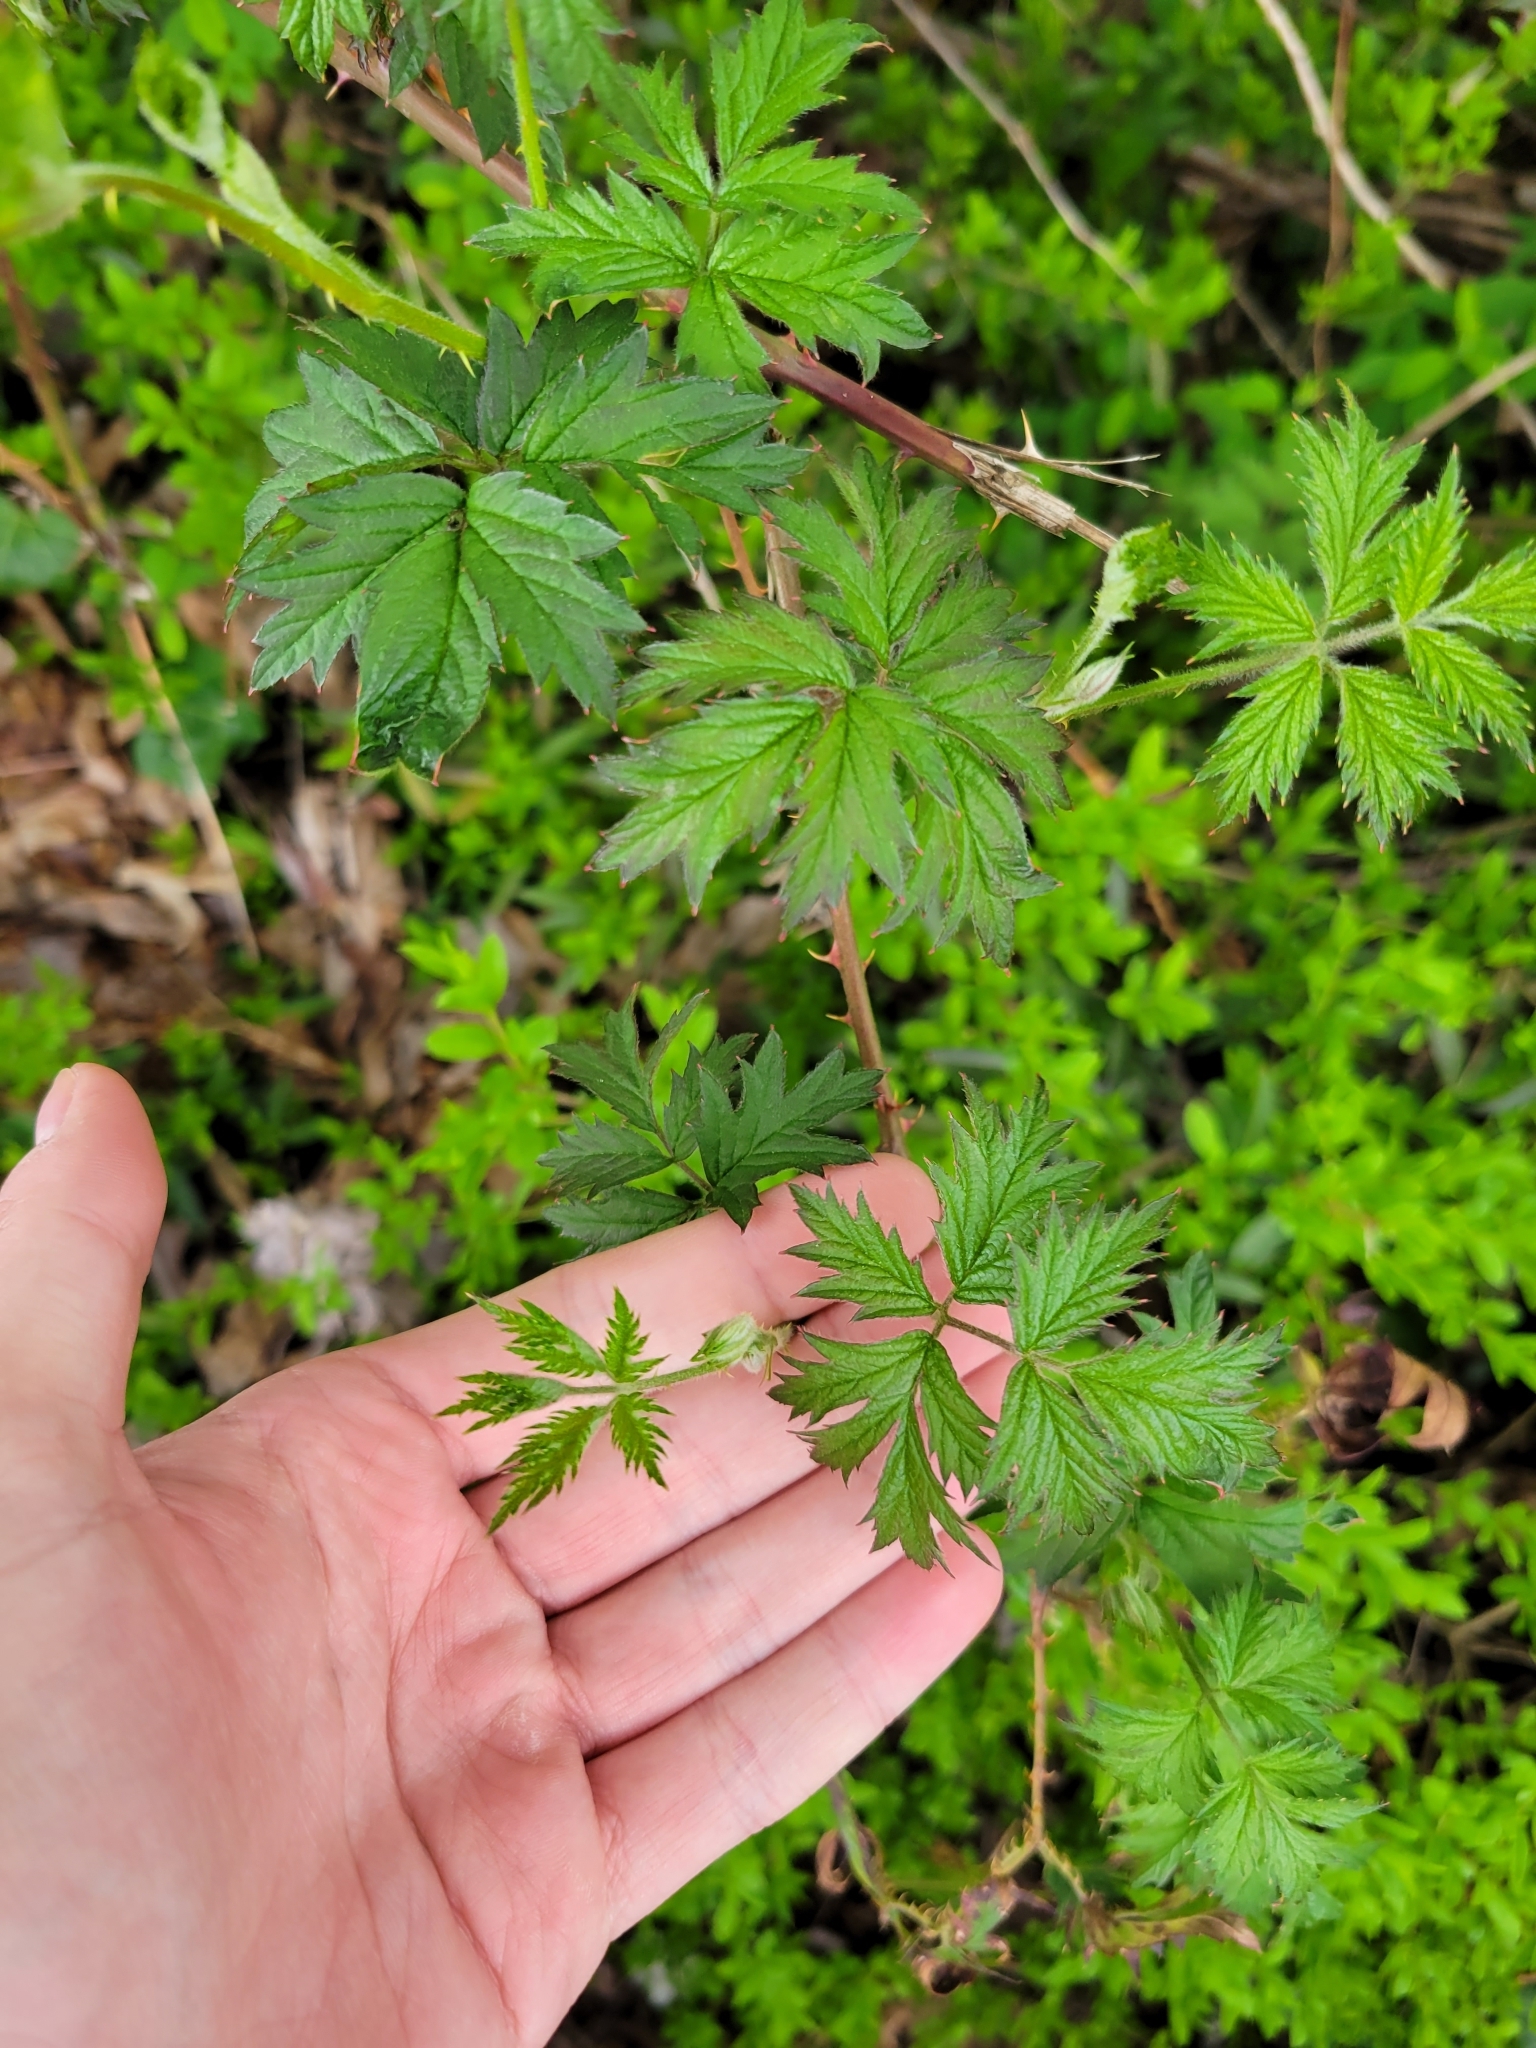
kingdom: Plantae
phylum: Tracheophyta
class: Magnoliopsida
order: Rosales
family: Rosaceae
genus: Rubus
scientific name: Rubus laciniatus
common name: Evergreen blackberry
